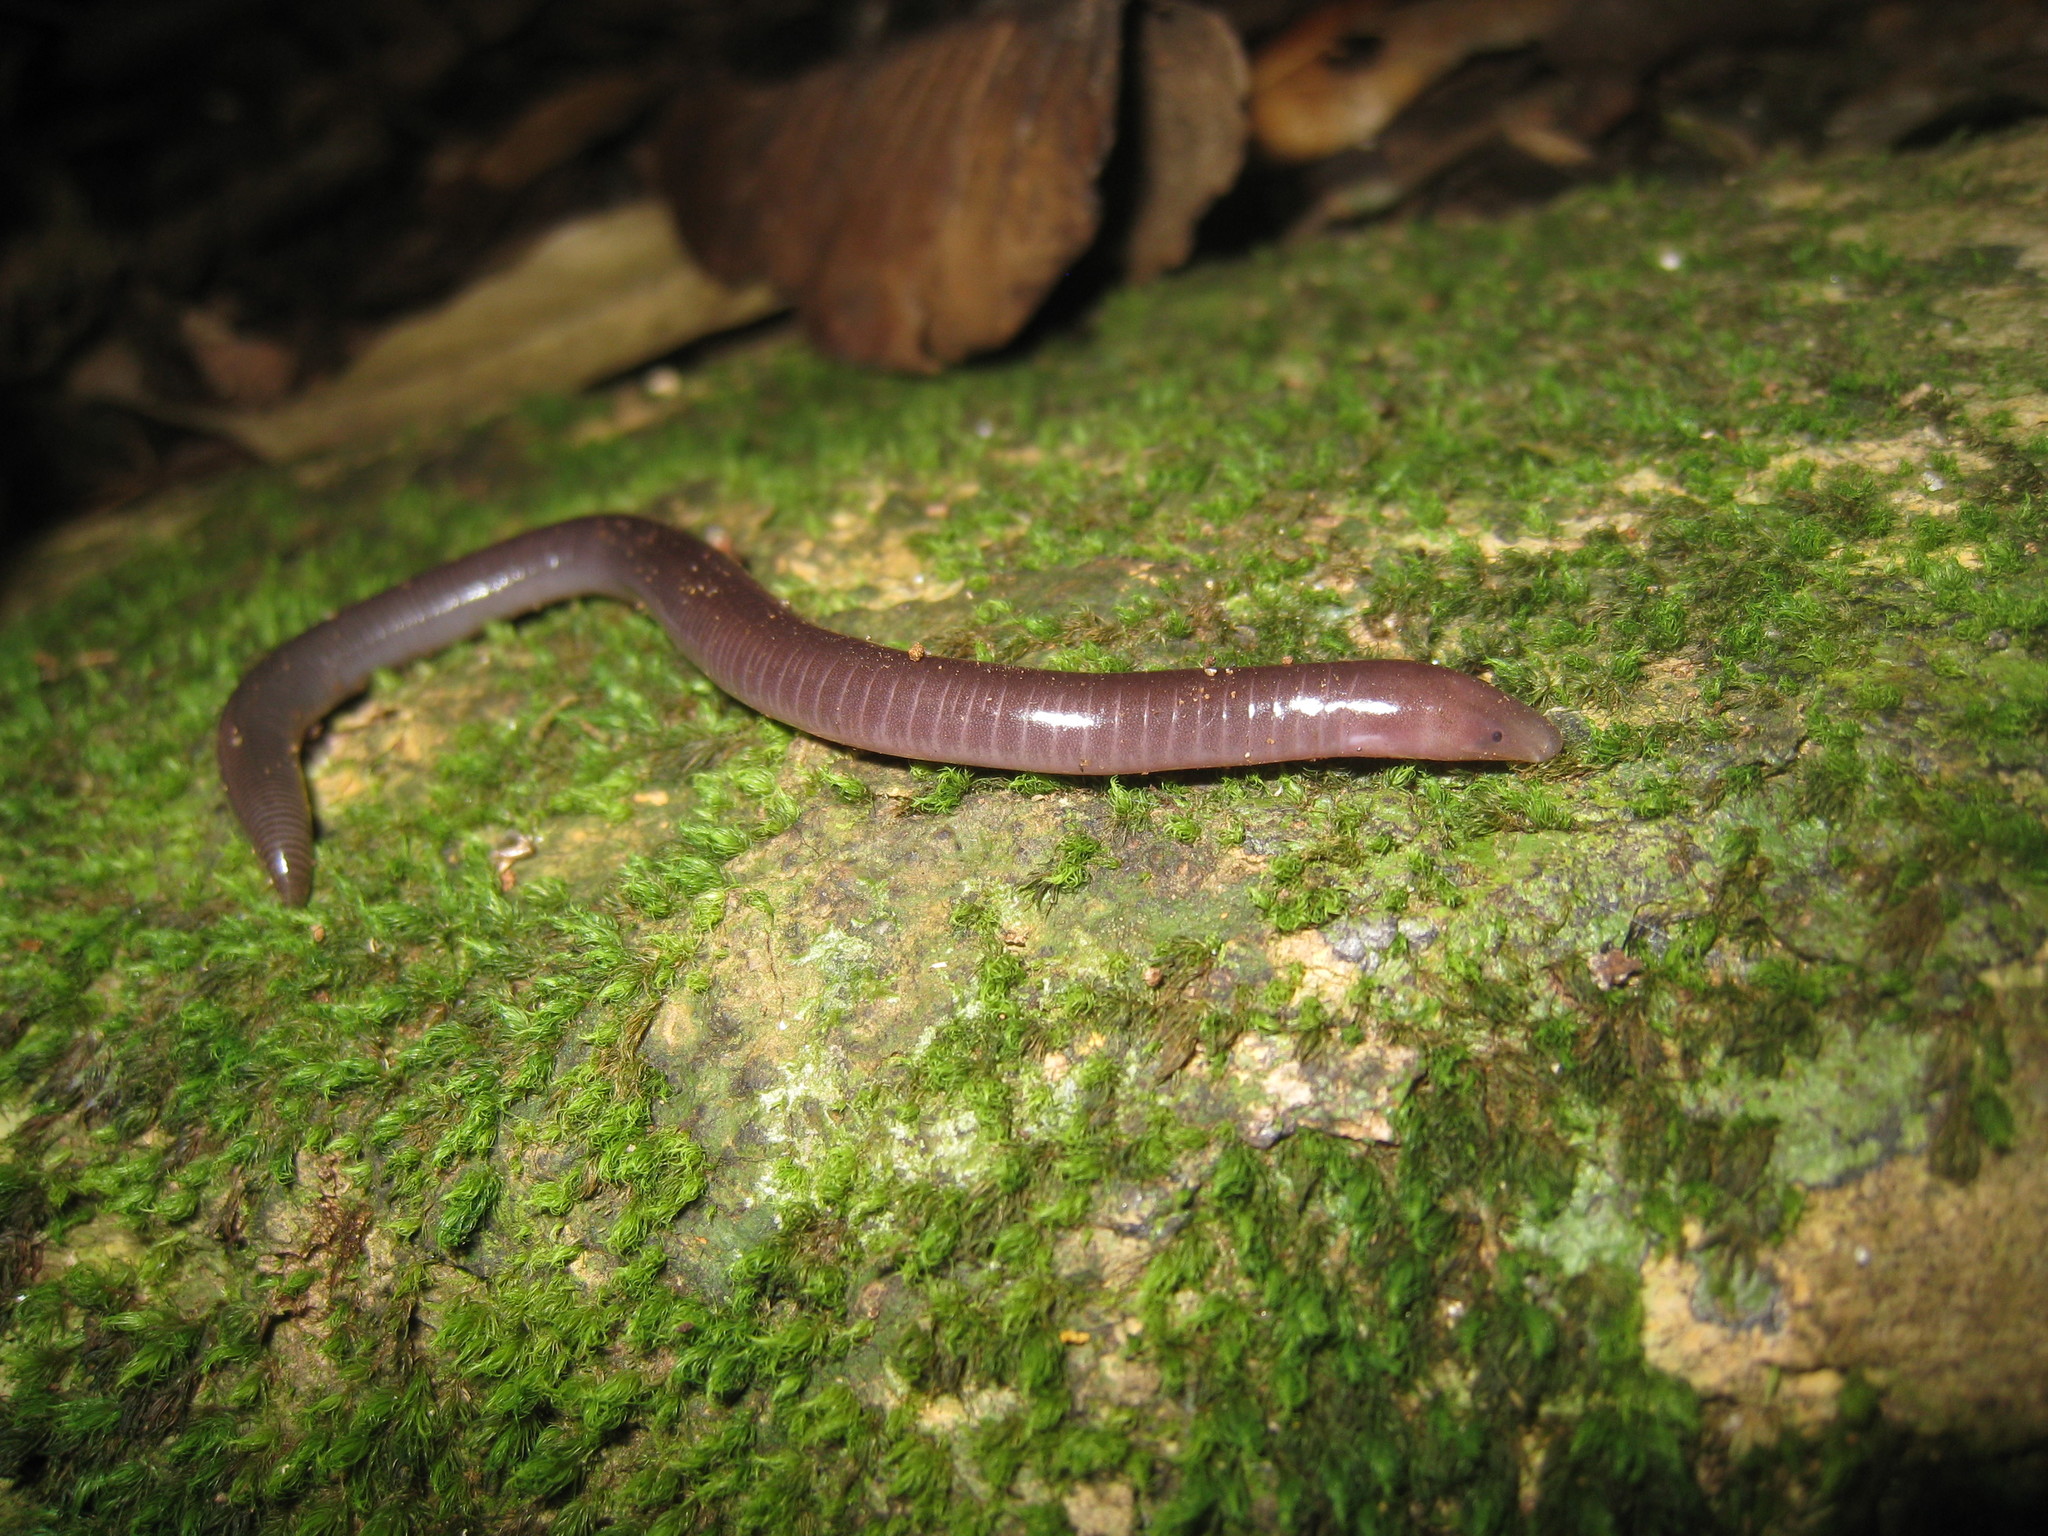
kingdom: Animalia
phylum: Chordata
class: Amphibia
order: Gymnophiona
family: Ichthyophiidae
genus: Uraeotyphlus
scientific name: Uraeotyphlus interruptus
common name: Chengalam caecilian
